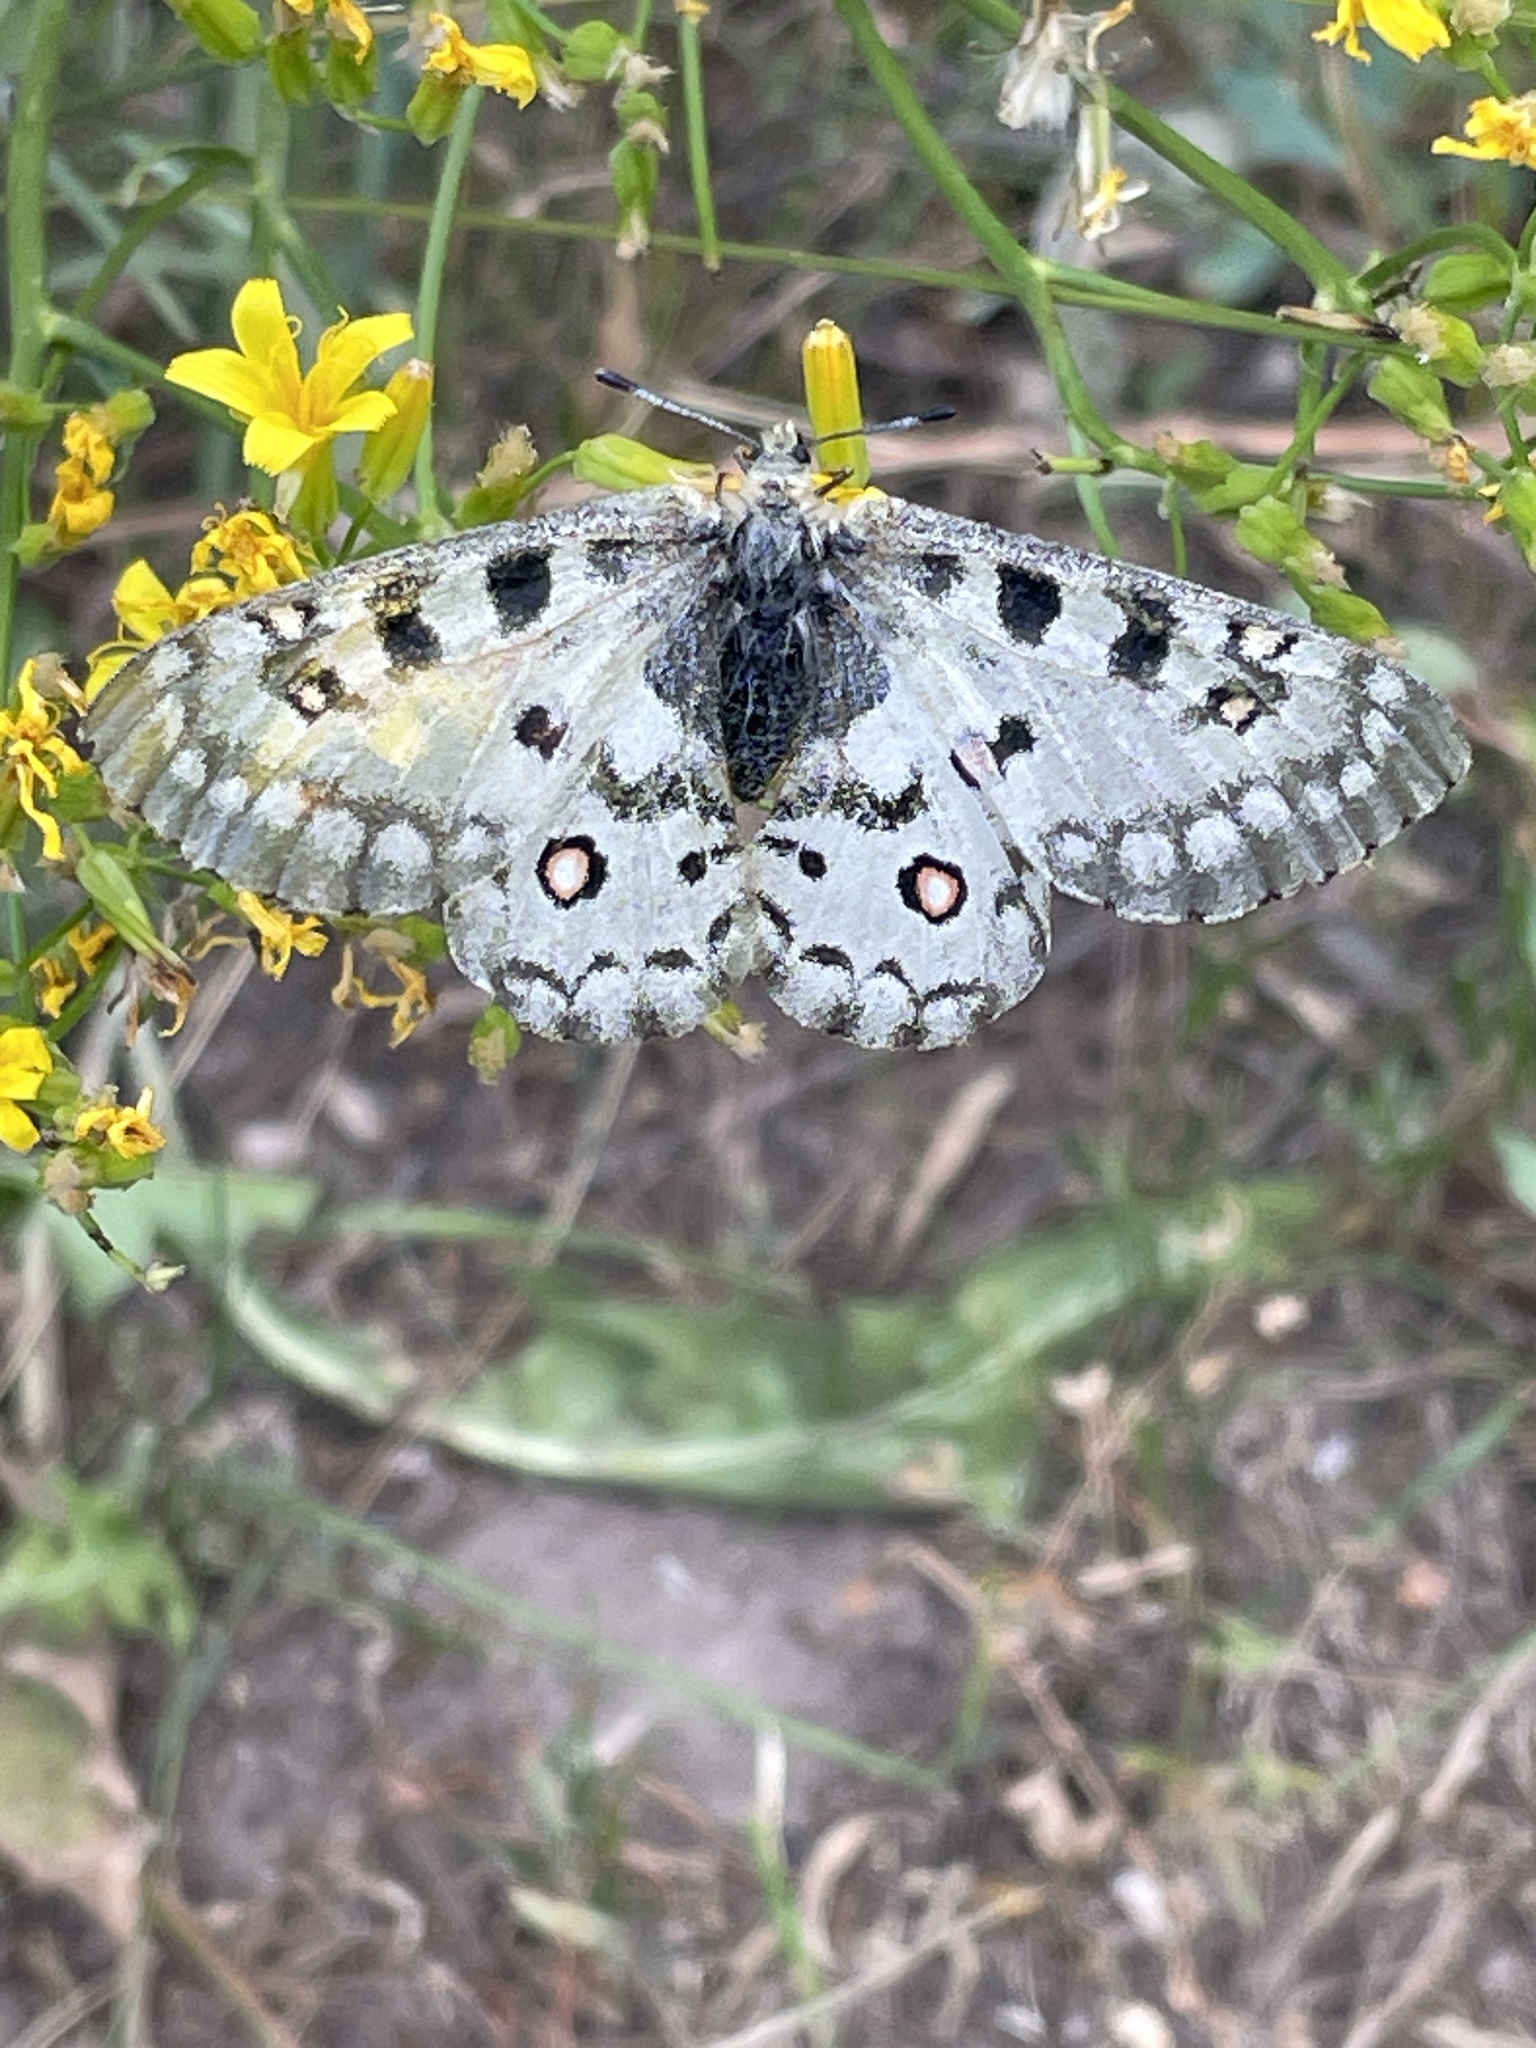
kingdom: Animalia
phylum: Arthropoda
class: Insecta
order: Lepidoptera
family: Papilionidae
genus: Parnassius
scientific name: Parnassius smintheus
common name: Mountain parnassian
